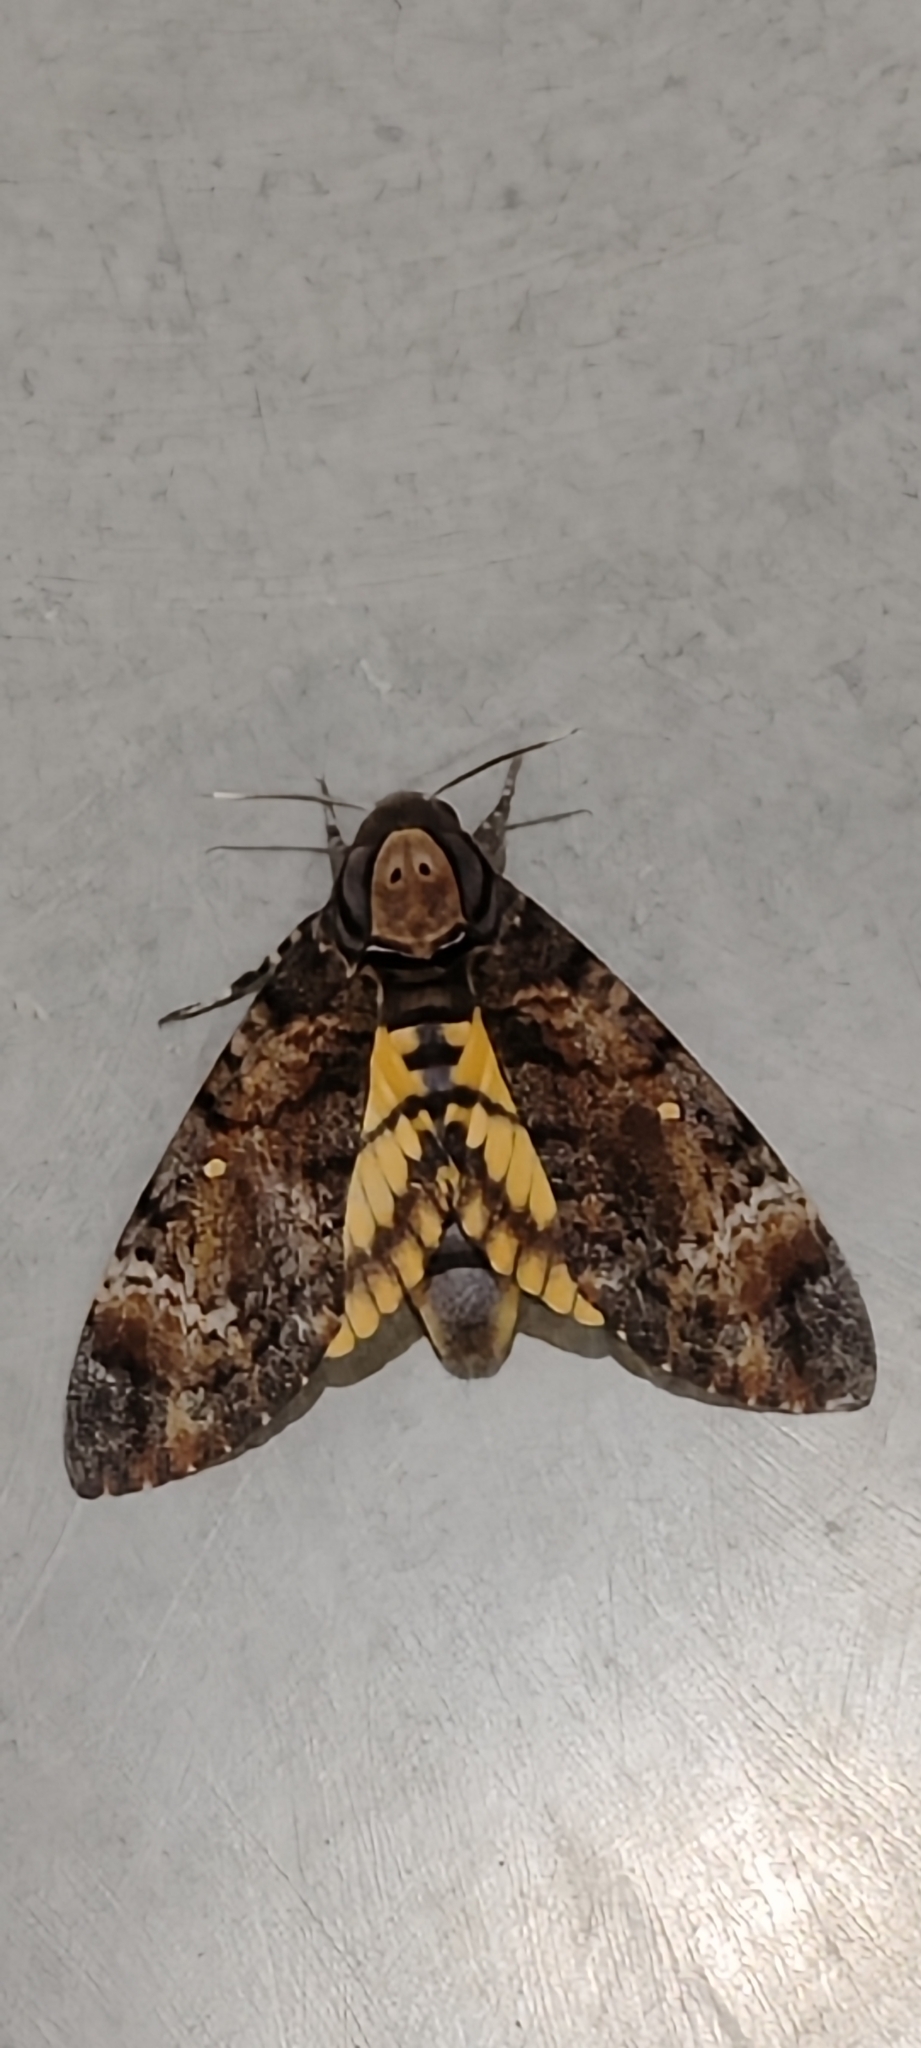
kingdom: Animalia
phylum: Arthropoda
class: Insecta
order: Lepidoptera
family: Sphingidae
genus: Acherontia
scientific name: Acherontia styx
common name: Death's-head hawk moth
